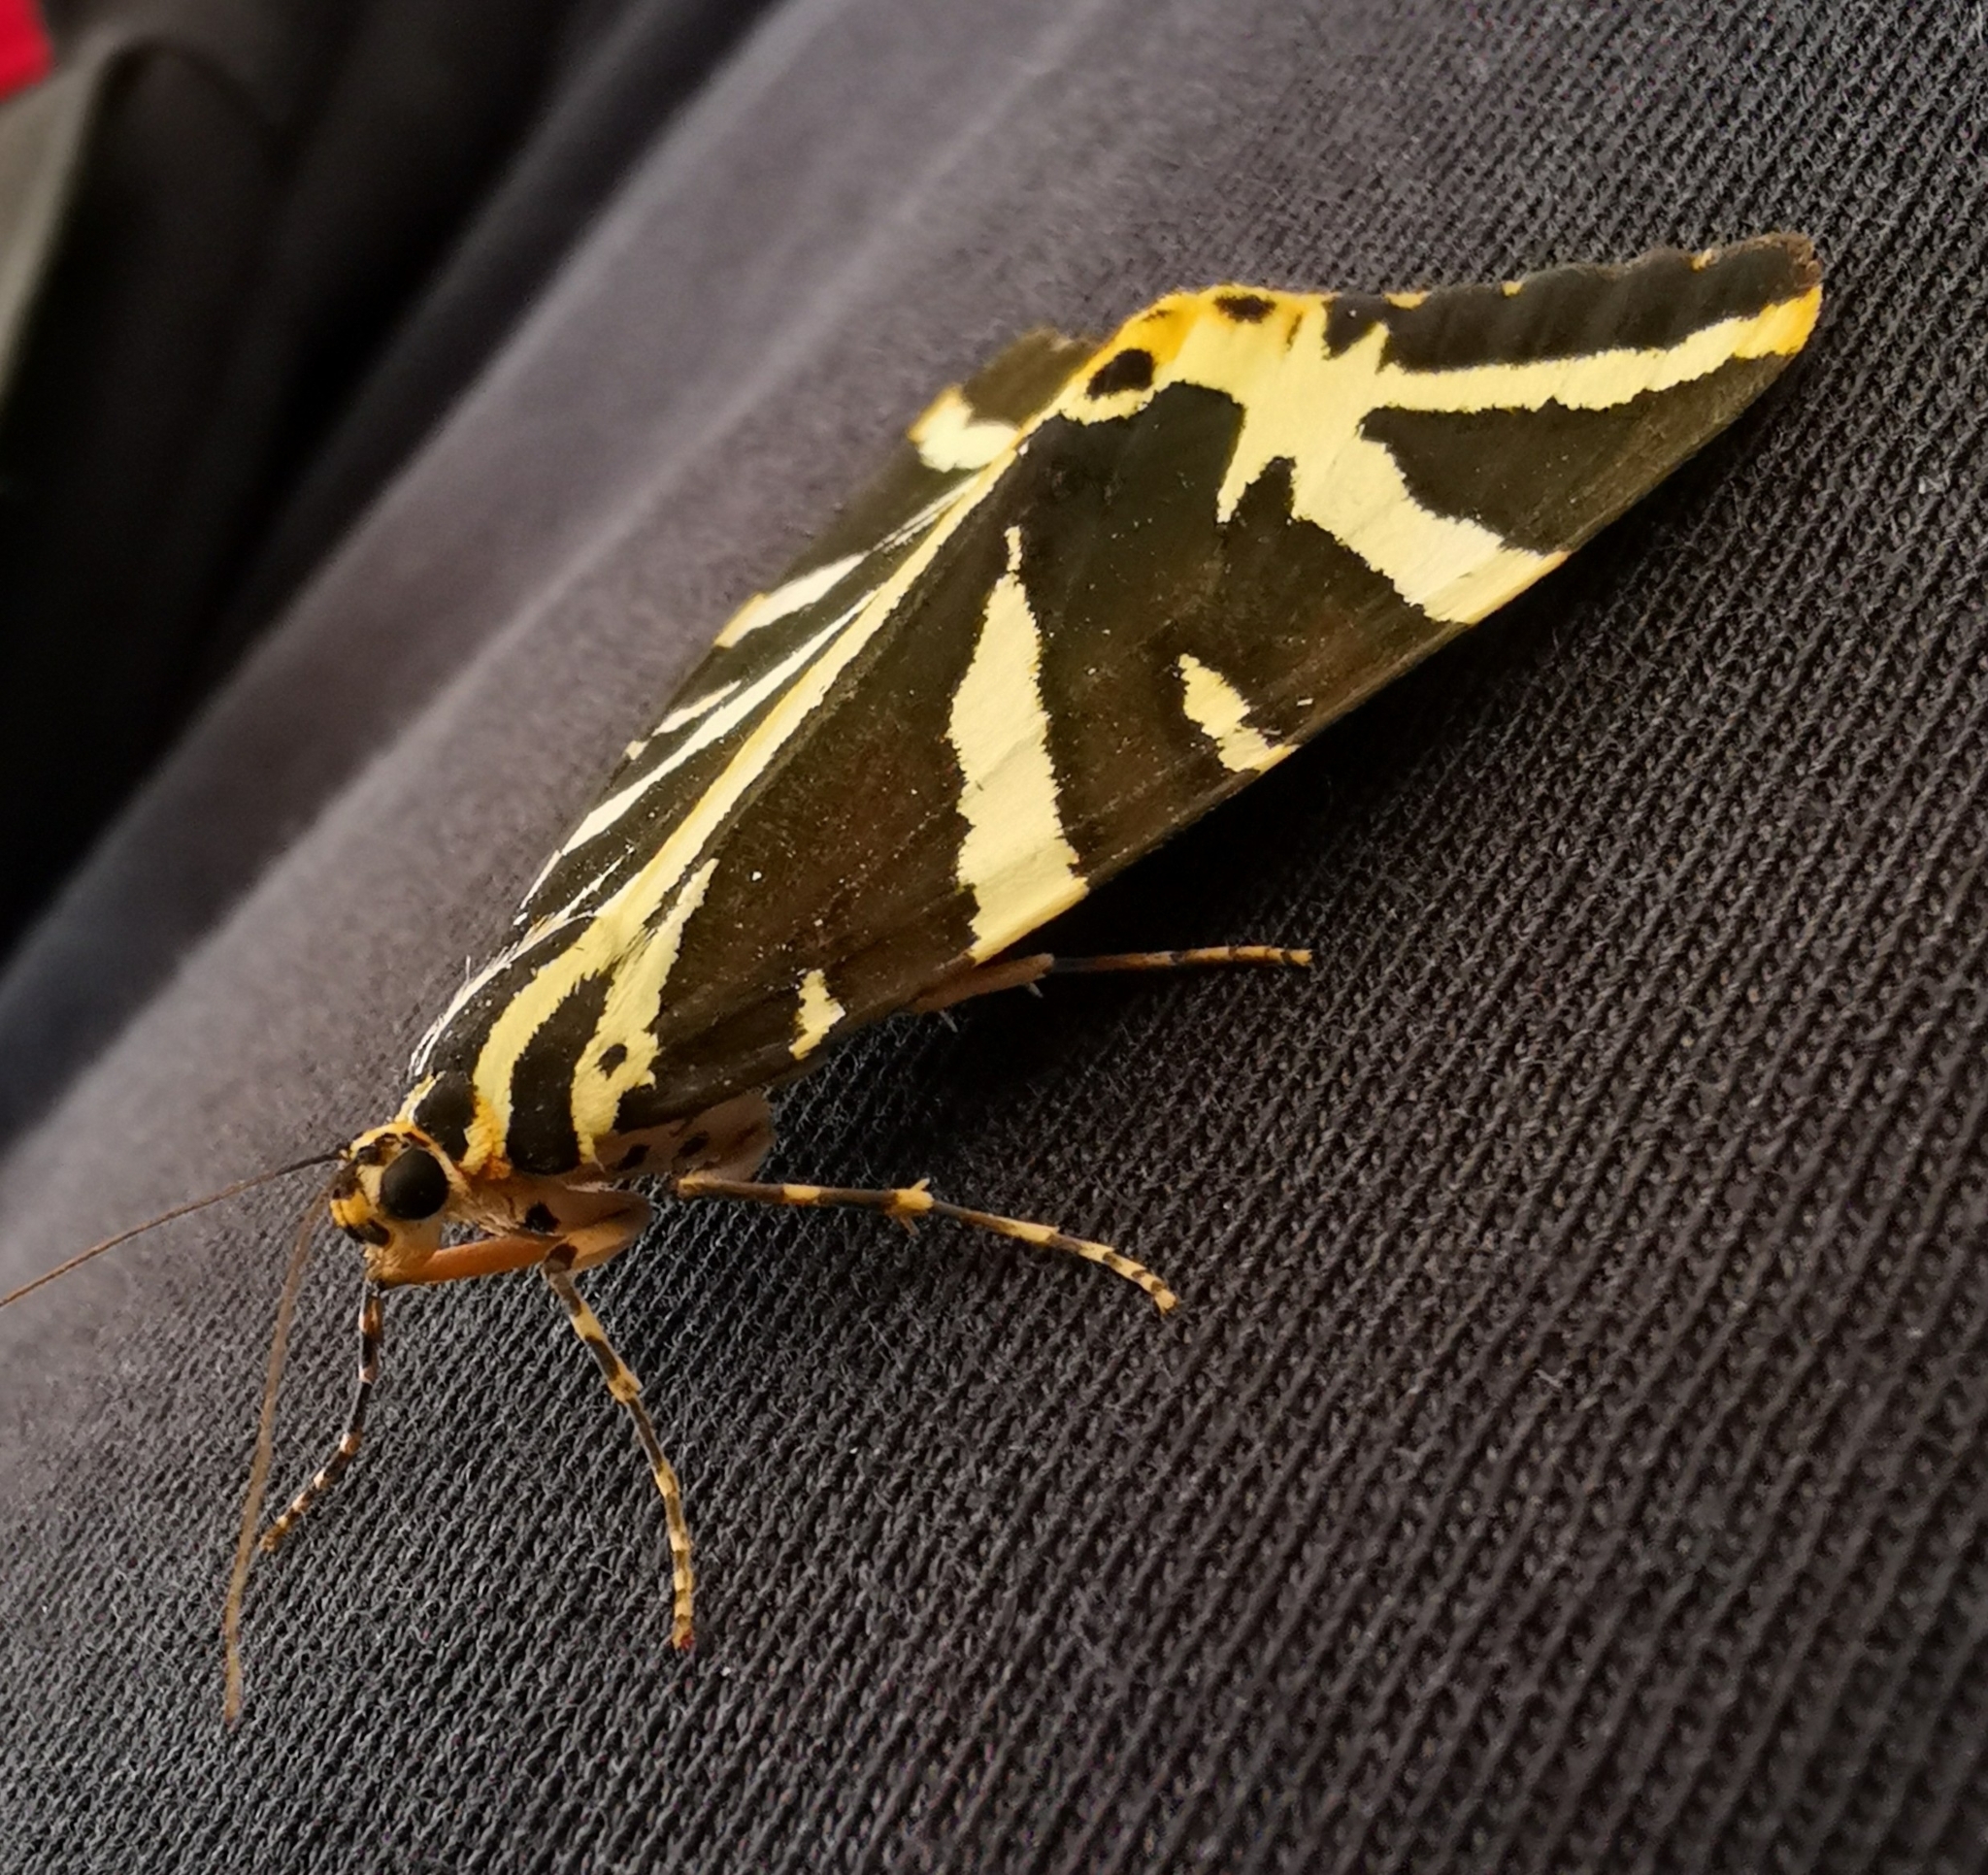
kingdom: Animalia
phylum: Arthropoda
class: Insecta
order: Lepidoptera
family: Erebidae
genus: Euplagia
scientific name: Euplagia quadripunctaria
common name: Jersey tiger
